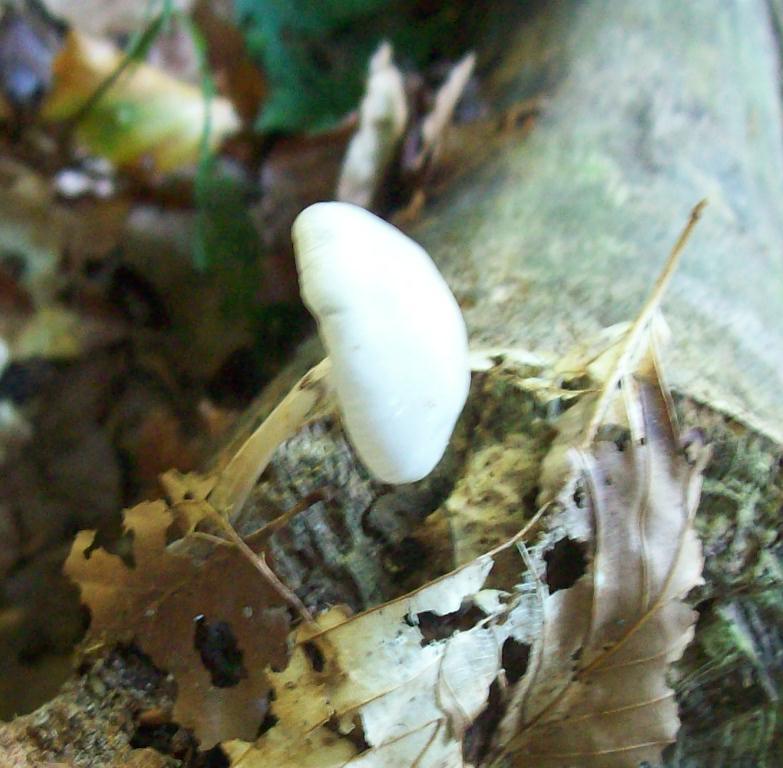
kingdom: Fungi
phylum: Basidiomycota
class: Agaricomycetes
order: Agaricales
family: Physalacriaceae
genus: Mucidula
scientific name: Mucidula mucida
